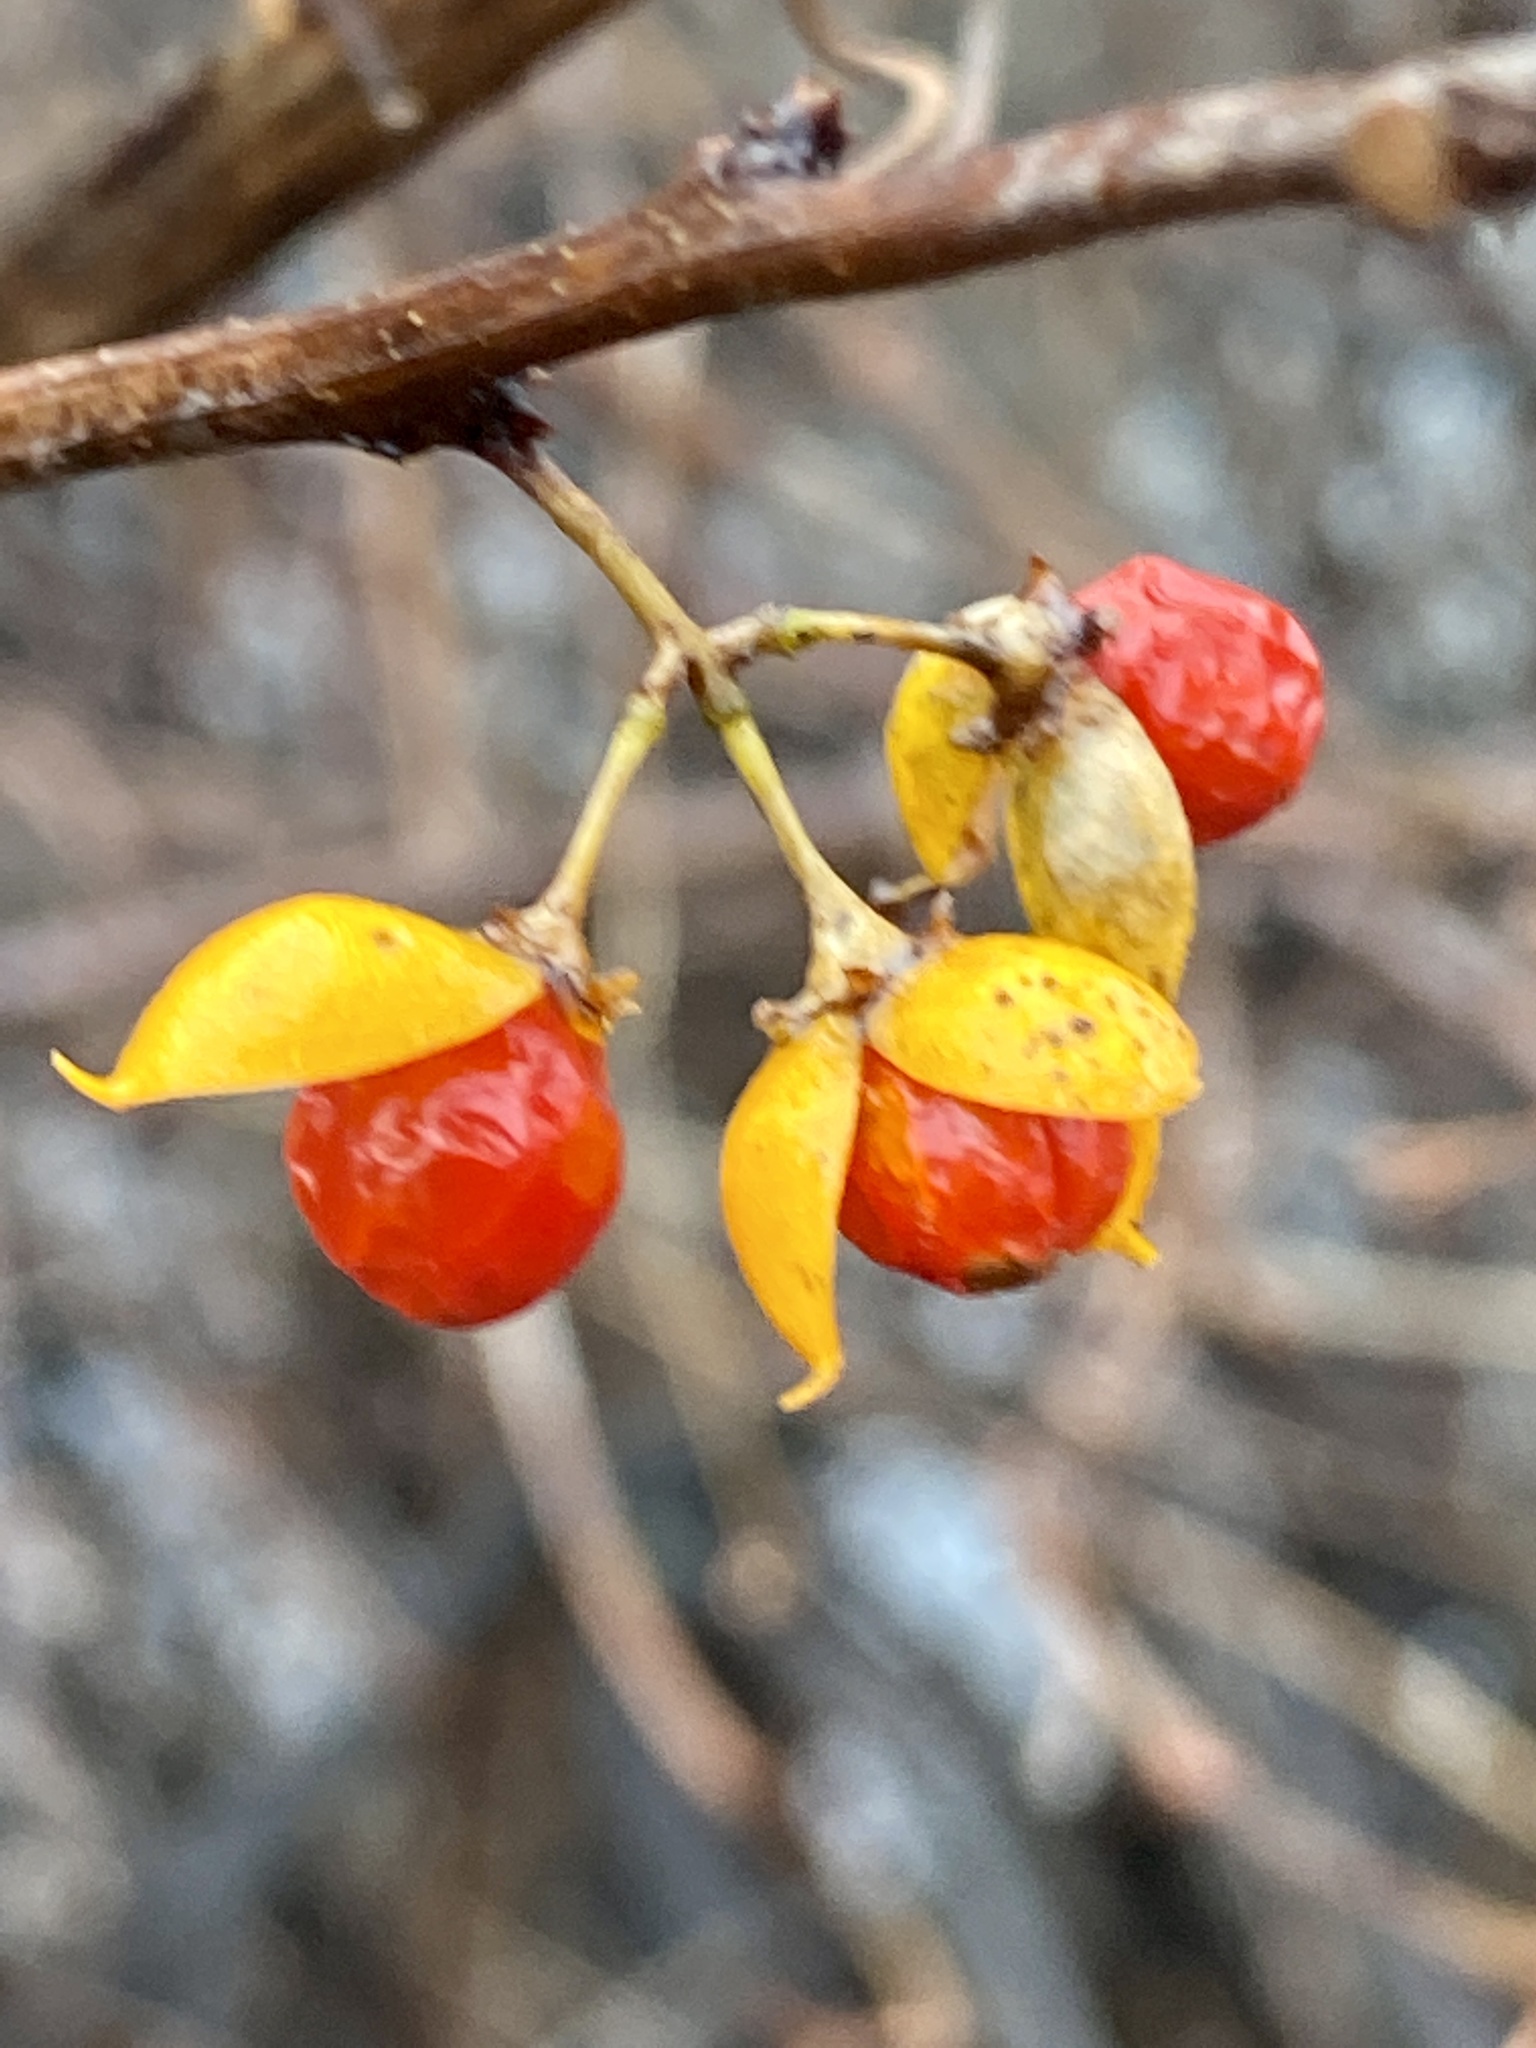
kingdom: Plantae
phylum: Tracheophyta
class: Magnoliopsida
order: Celastrales
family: Celastraceae
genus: Celastrus
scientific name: Celastrus orbiculatus
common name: Oriental bittersweet
